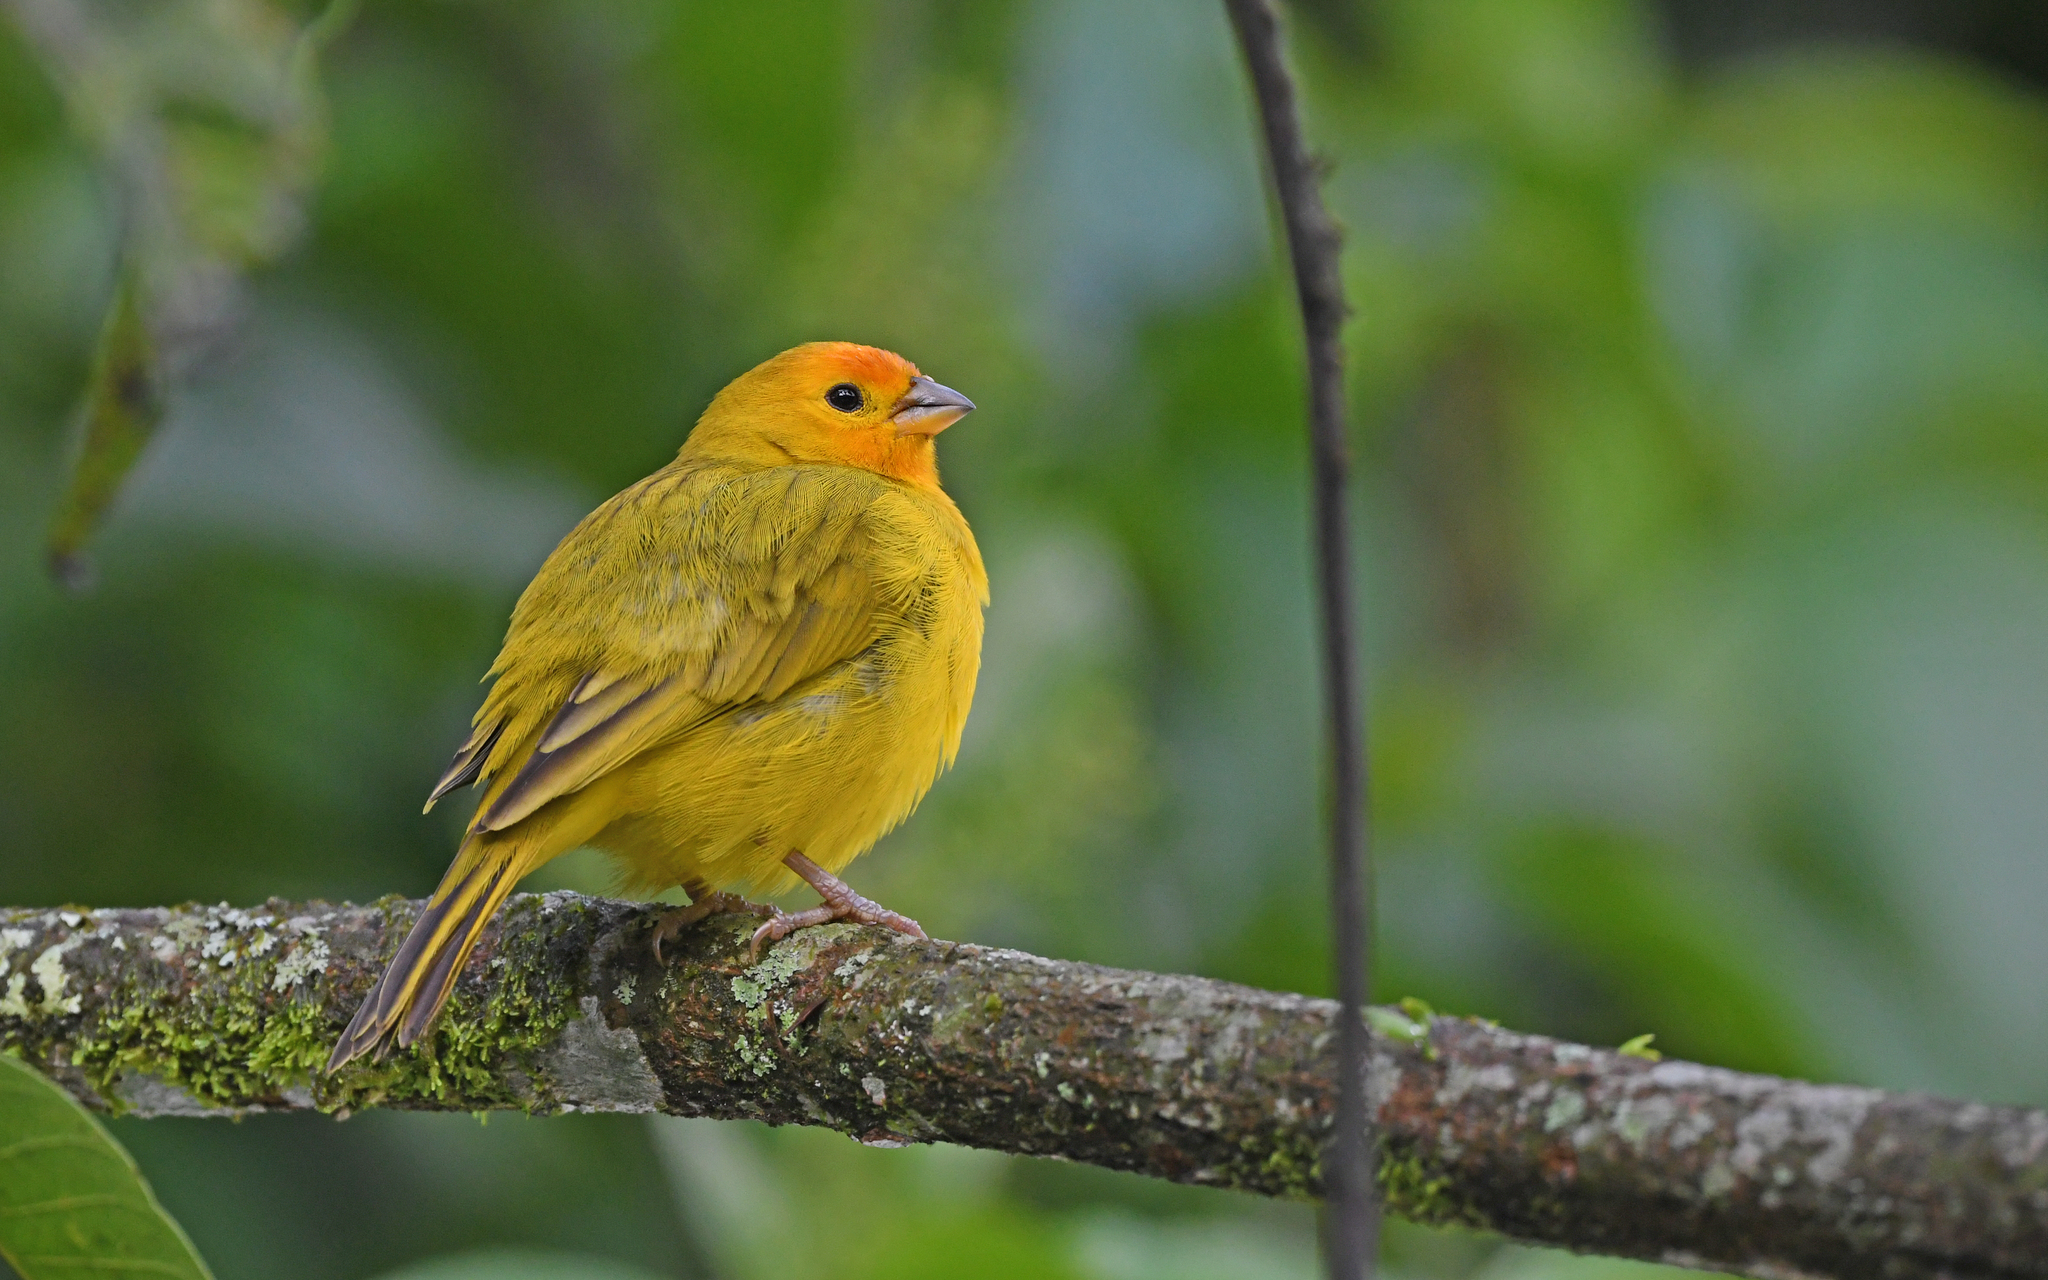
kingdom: Animalia
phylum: Chordata
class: Aves
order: Passeriformes
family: Thraupidae
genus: Sicalis
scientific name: Sicalis flaveola
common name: Saffron finch
